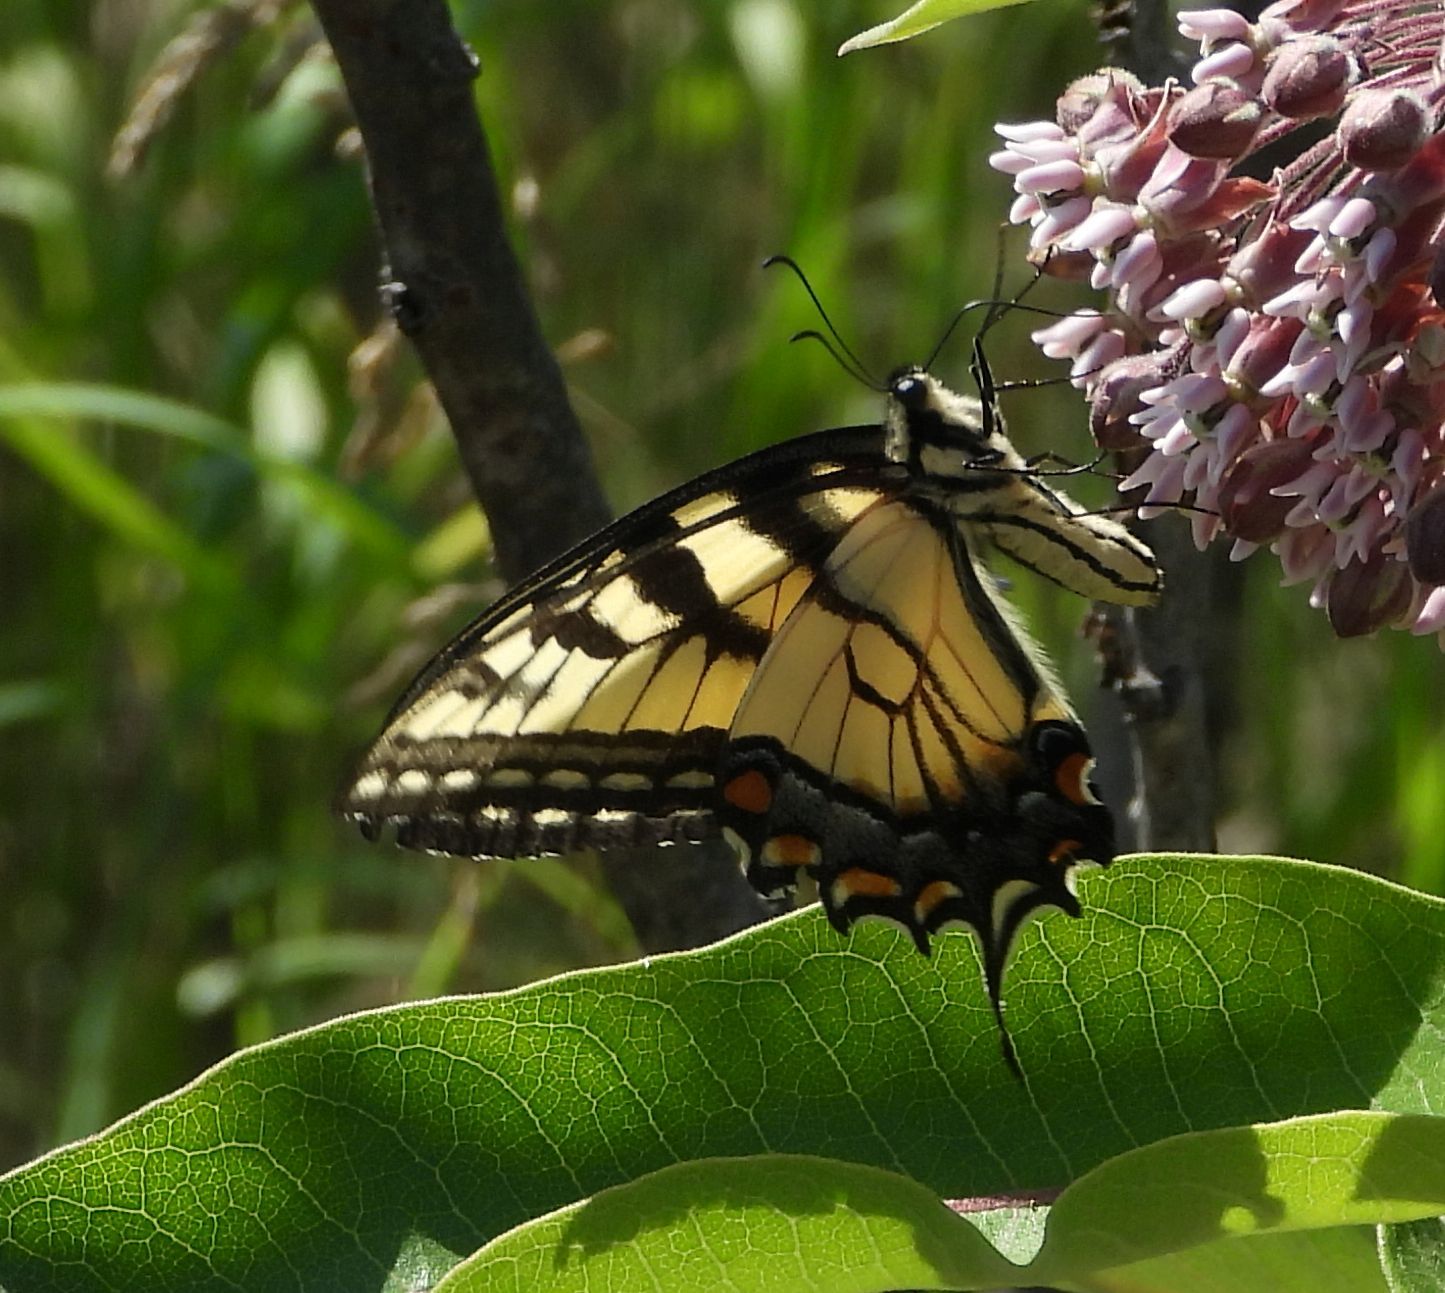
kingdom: Animalia
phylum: Arthropoda
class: Insecta
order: Lepidoptera
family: Papilionidae
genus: Papilio
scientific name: Papilio
